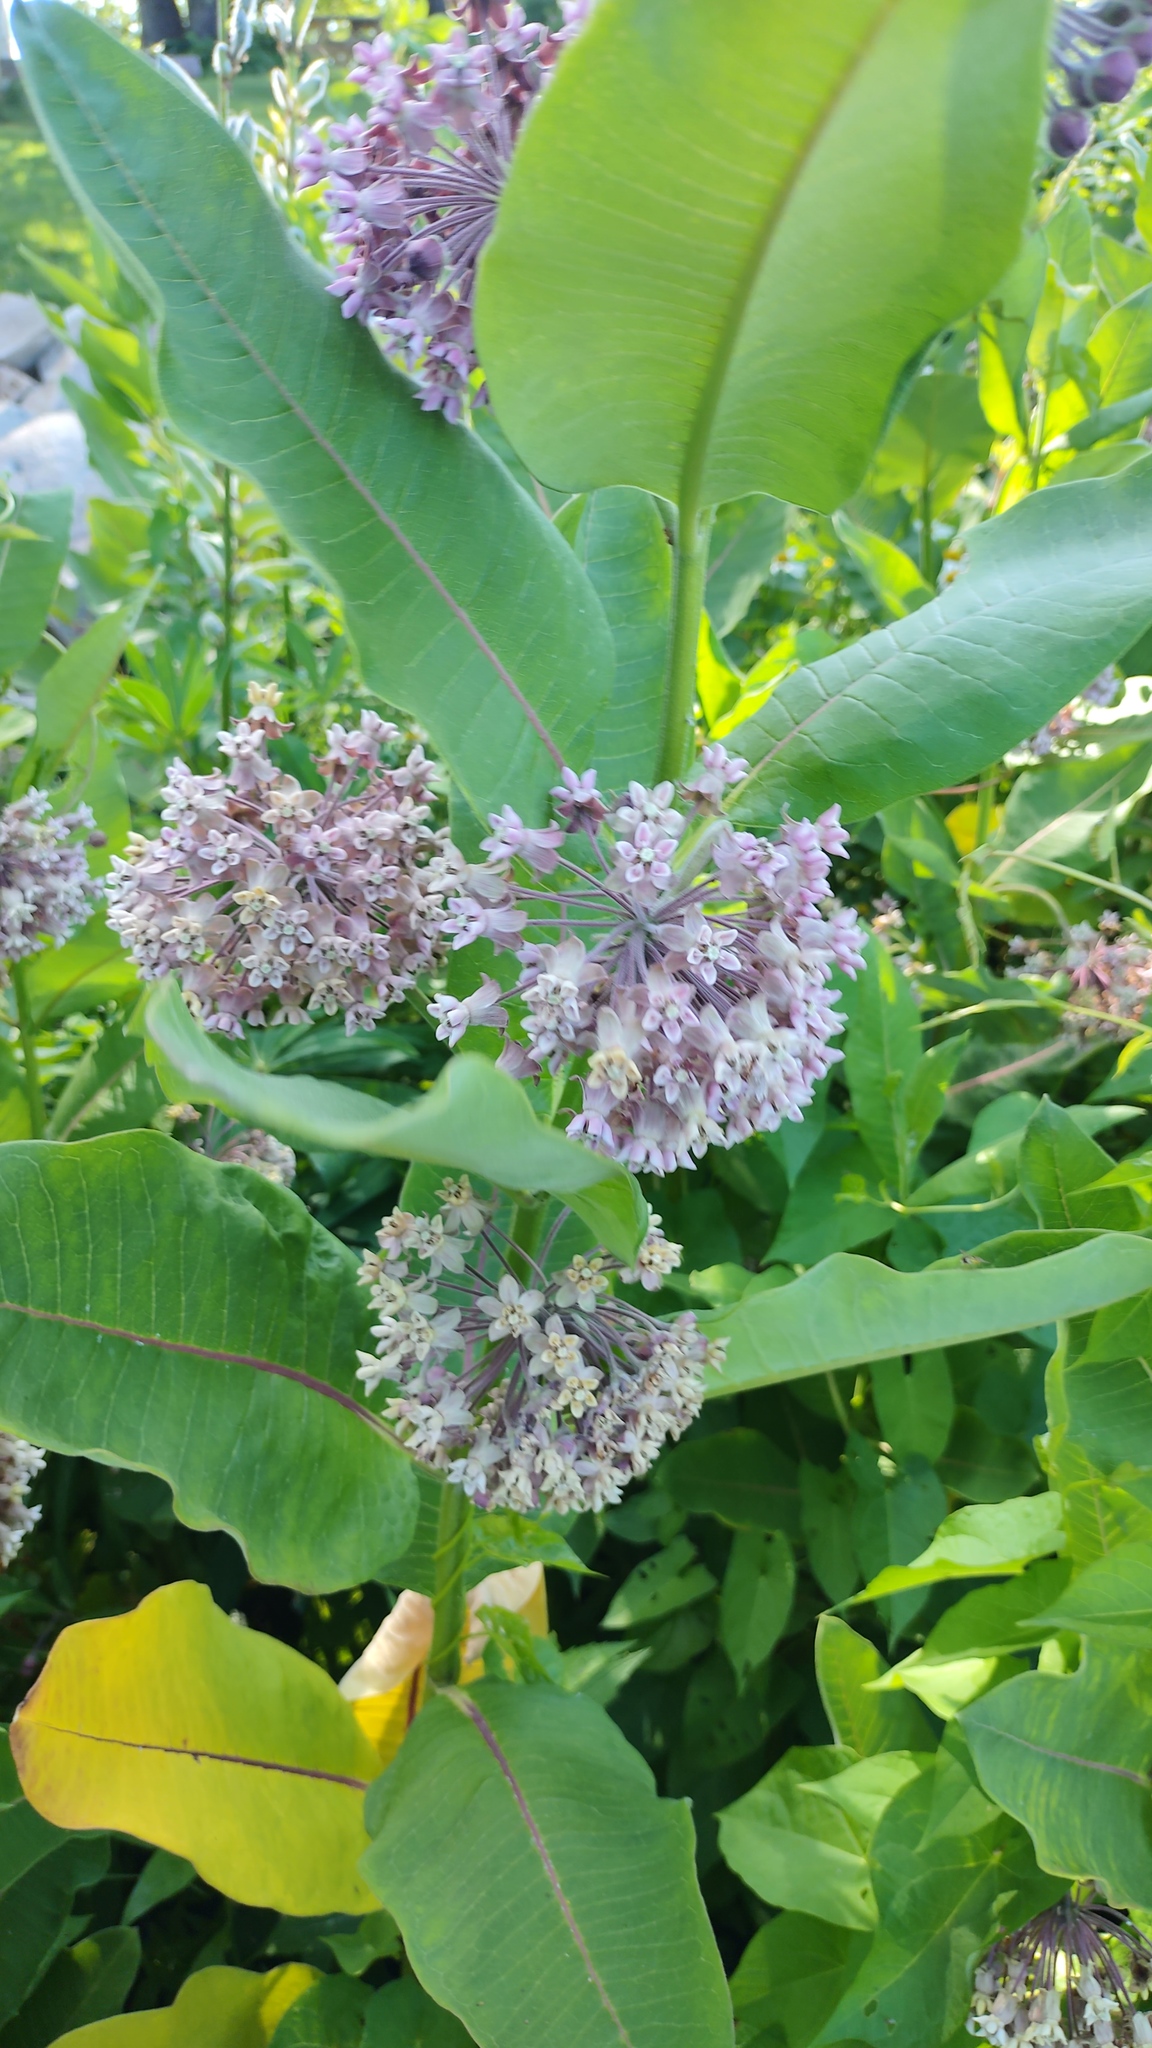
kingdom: Plantae
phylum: Tracheophyta
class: Magnoliopsida
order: Gentianales
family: Apocynaceae
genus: Asclepias
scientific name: Asclepias syriaca
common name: Common milkweed
